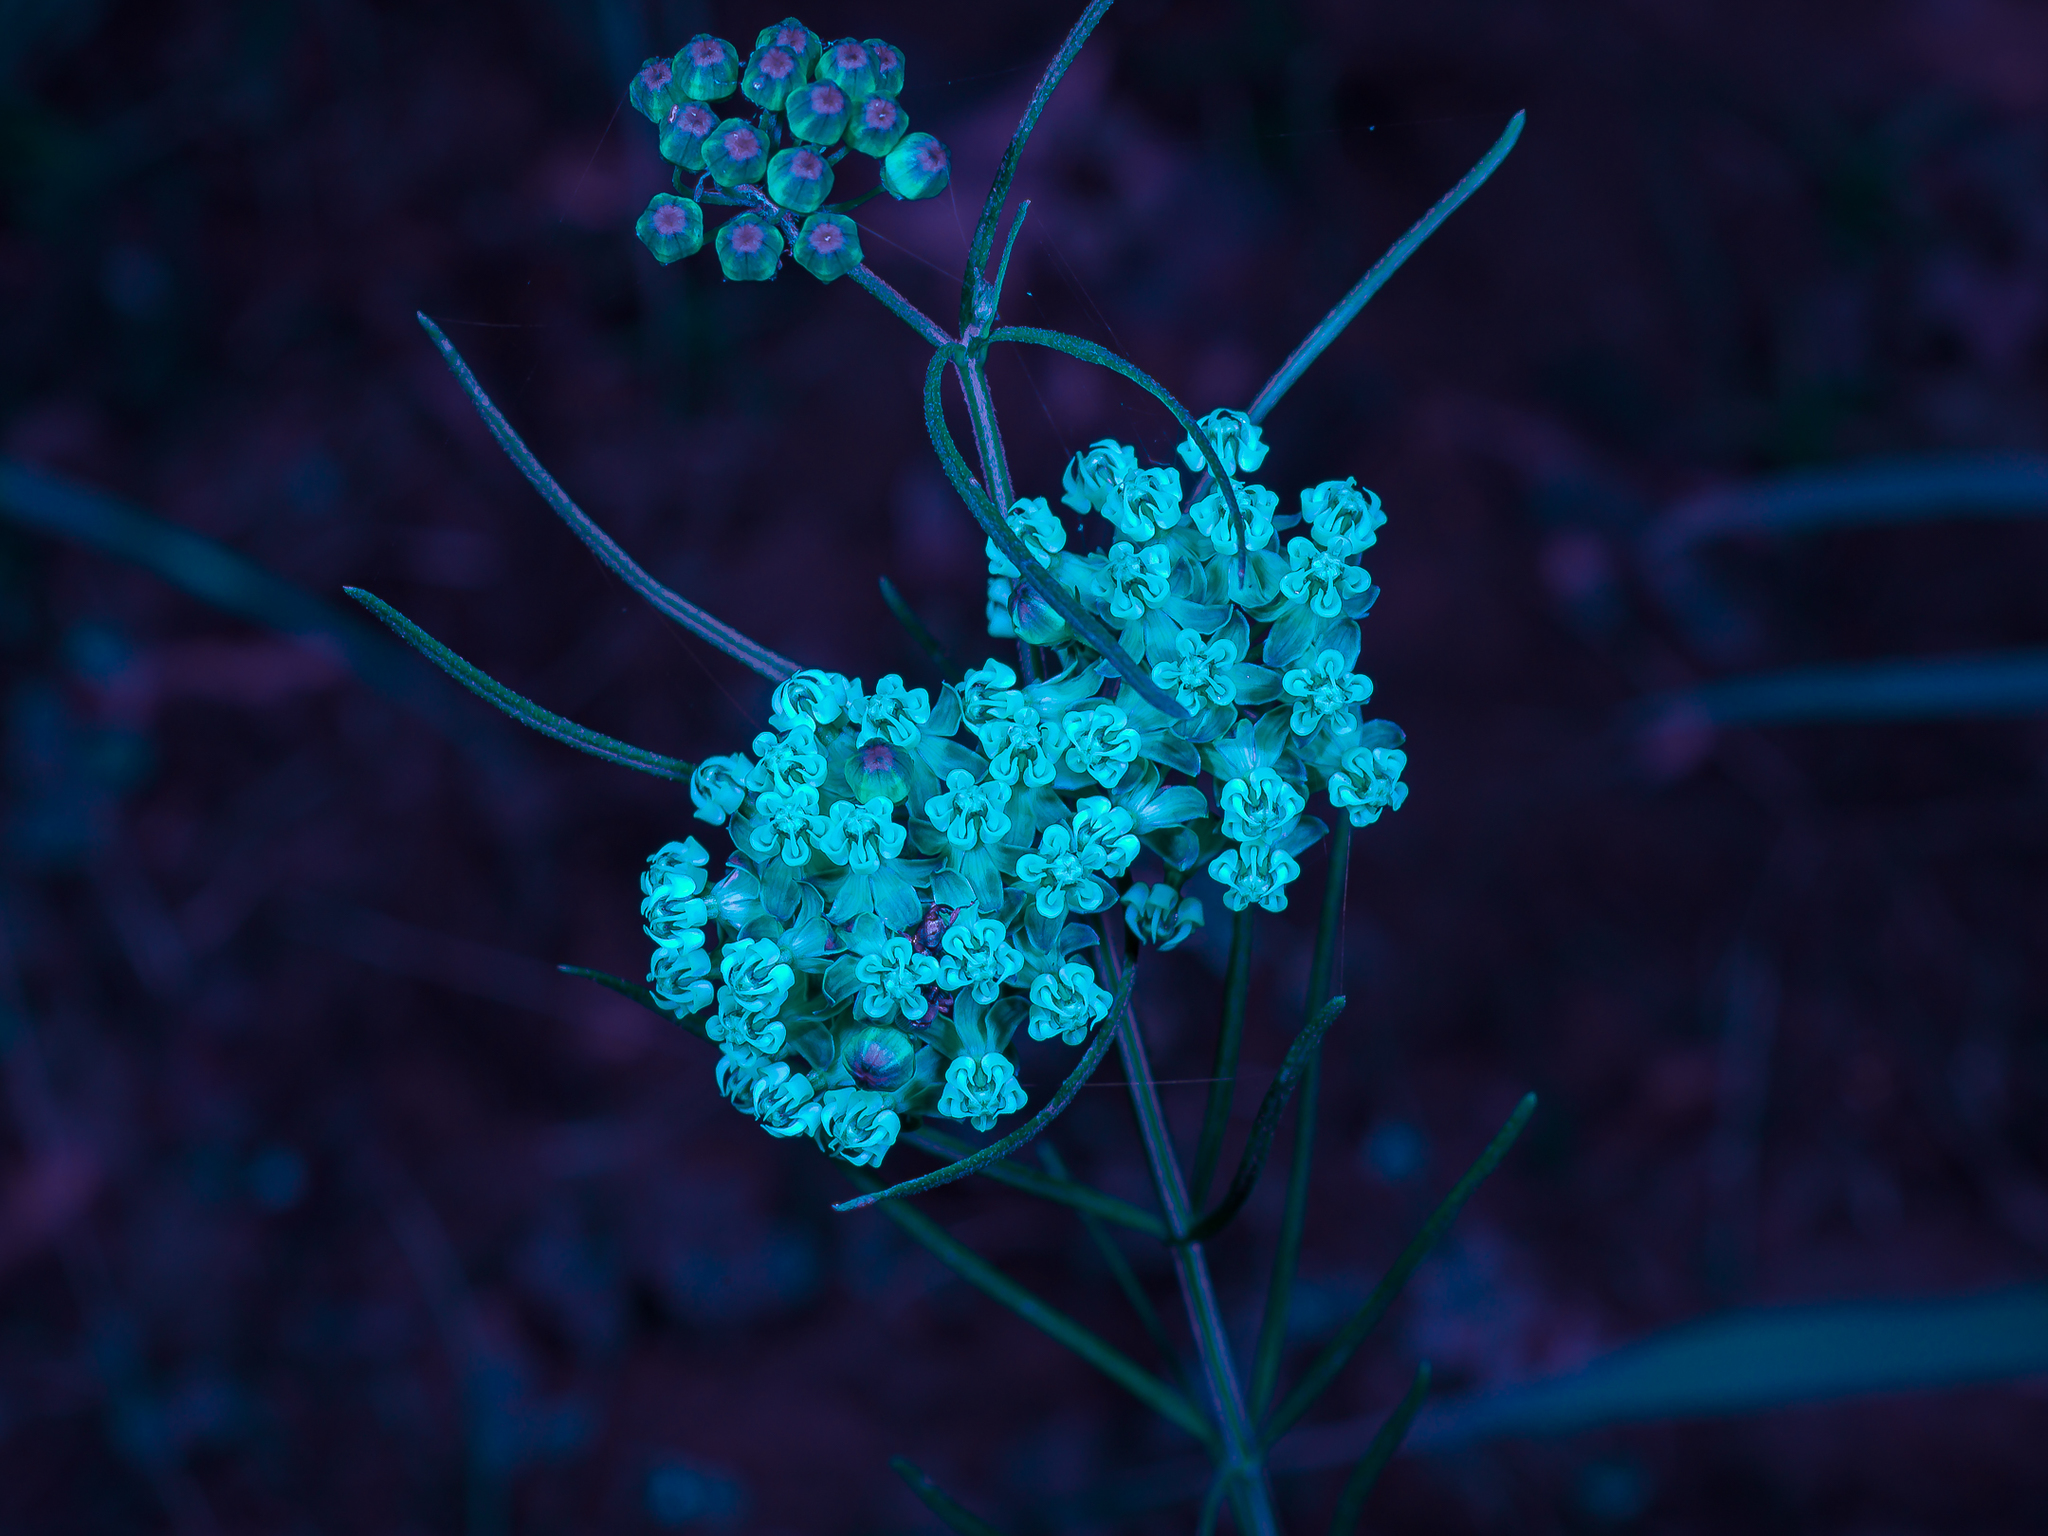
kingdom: Plantae
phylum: Tracheophyta
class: Magnoliopsida
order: Gentianales
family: Apocynaceae
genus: Asclepias
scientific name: Asclepias verticillata
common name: Eastern whorled milkweed
